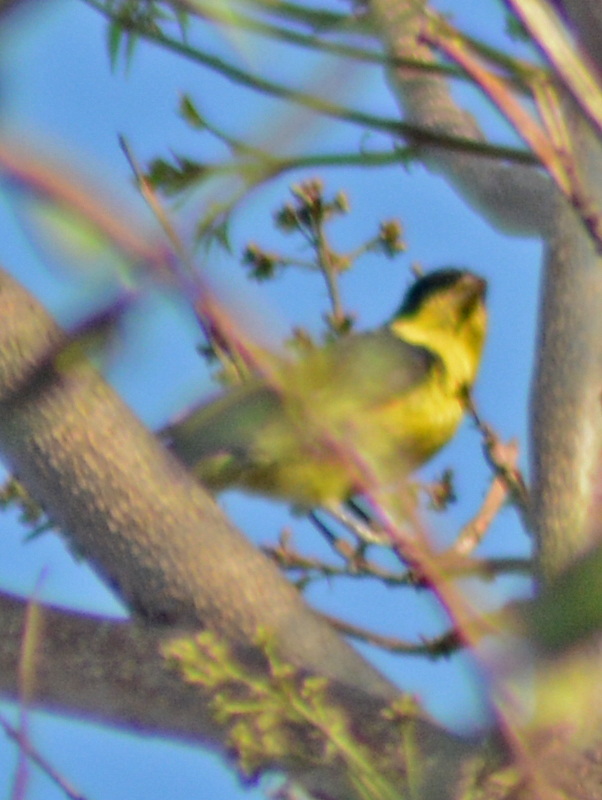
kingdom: Animalia
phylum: Chordata
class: Aves
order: Passeriformes
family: Fringillidae
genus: Spinus
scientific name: Spinus psaltria
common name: Lesser goldfinch
